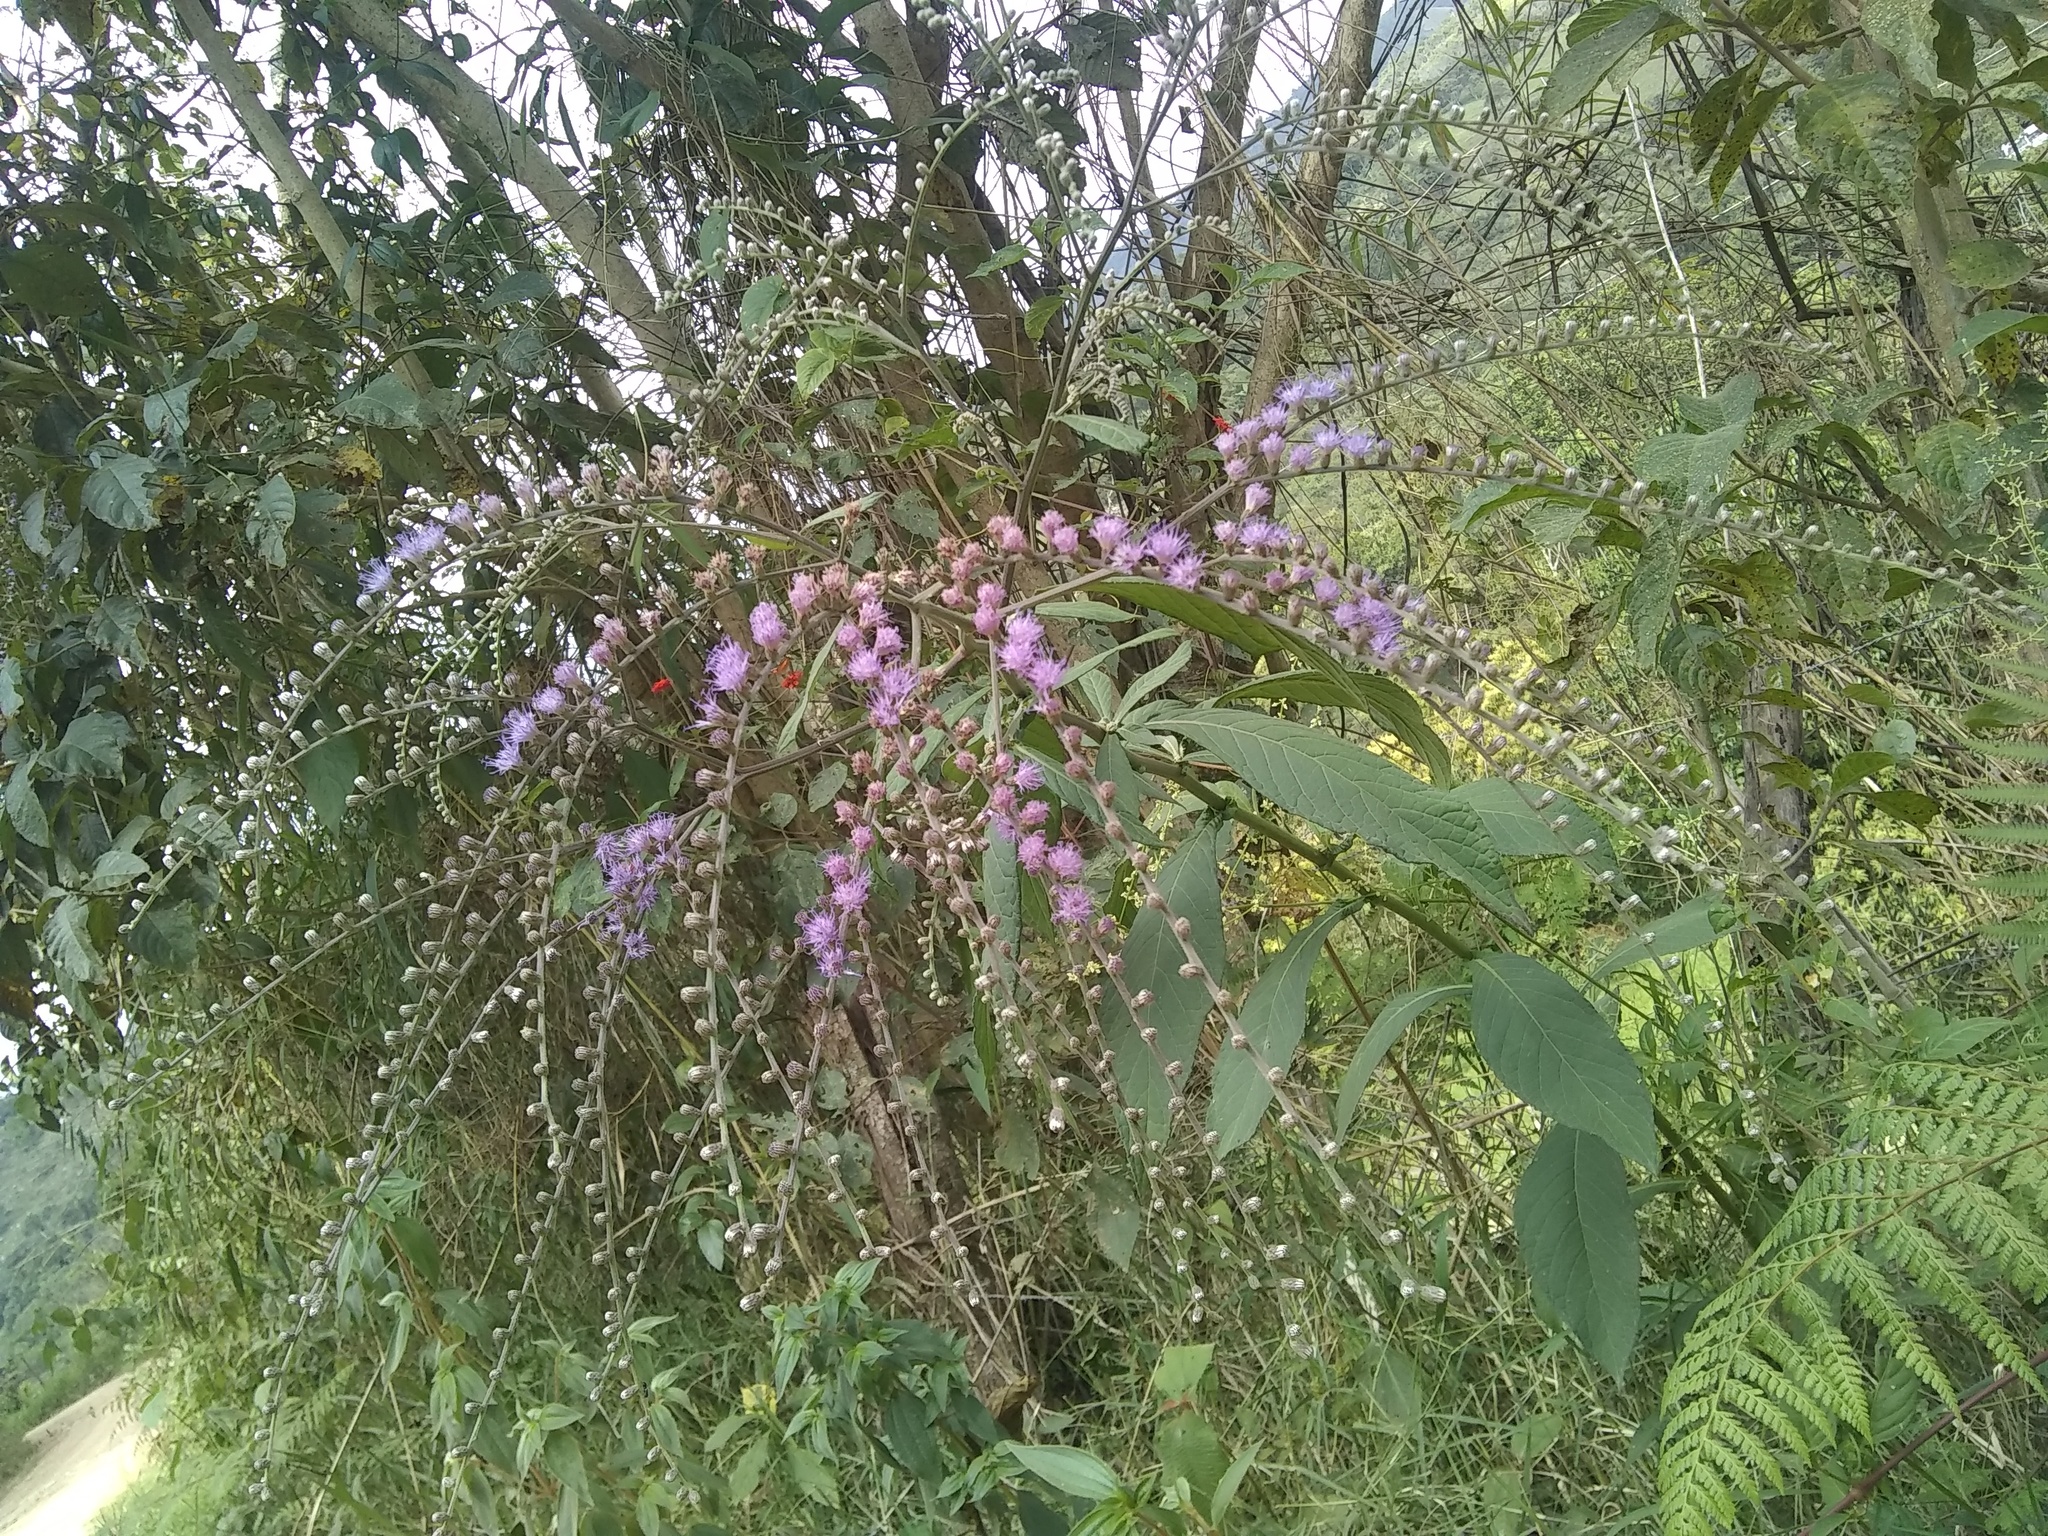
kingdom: Plantae
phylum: Tracheophyta
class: Magnoliopsida
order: Asterales
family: Asteraceae
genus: Eirmocephala
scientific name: Eirmocephala brachiata
